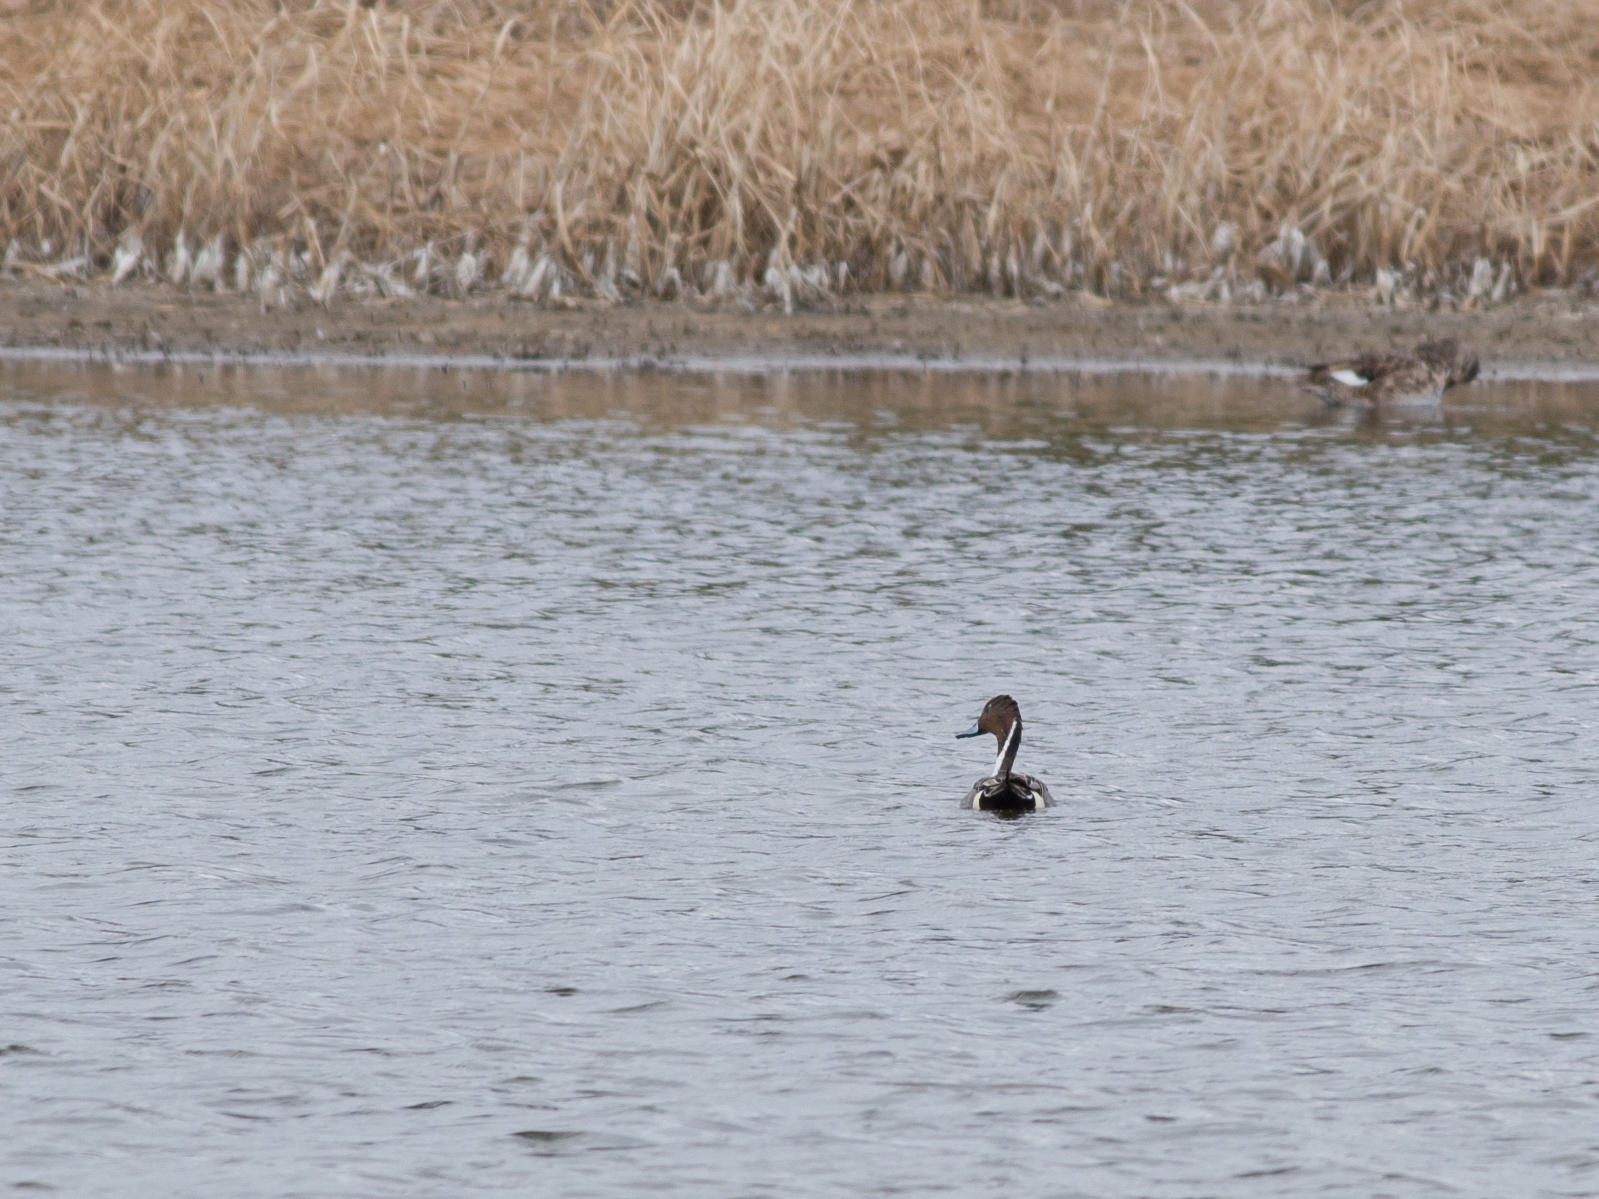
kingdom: Animalia
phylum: Chordata
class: Aves
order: Anseriformes
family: Anatidae
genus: Anas
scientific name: Anas acuta
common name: Northern pintail
